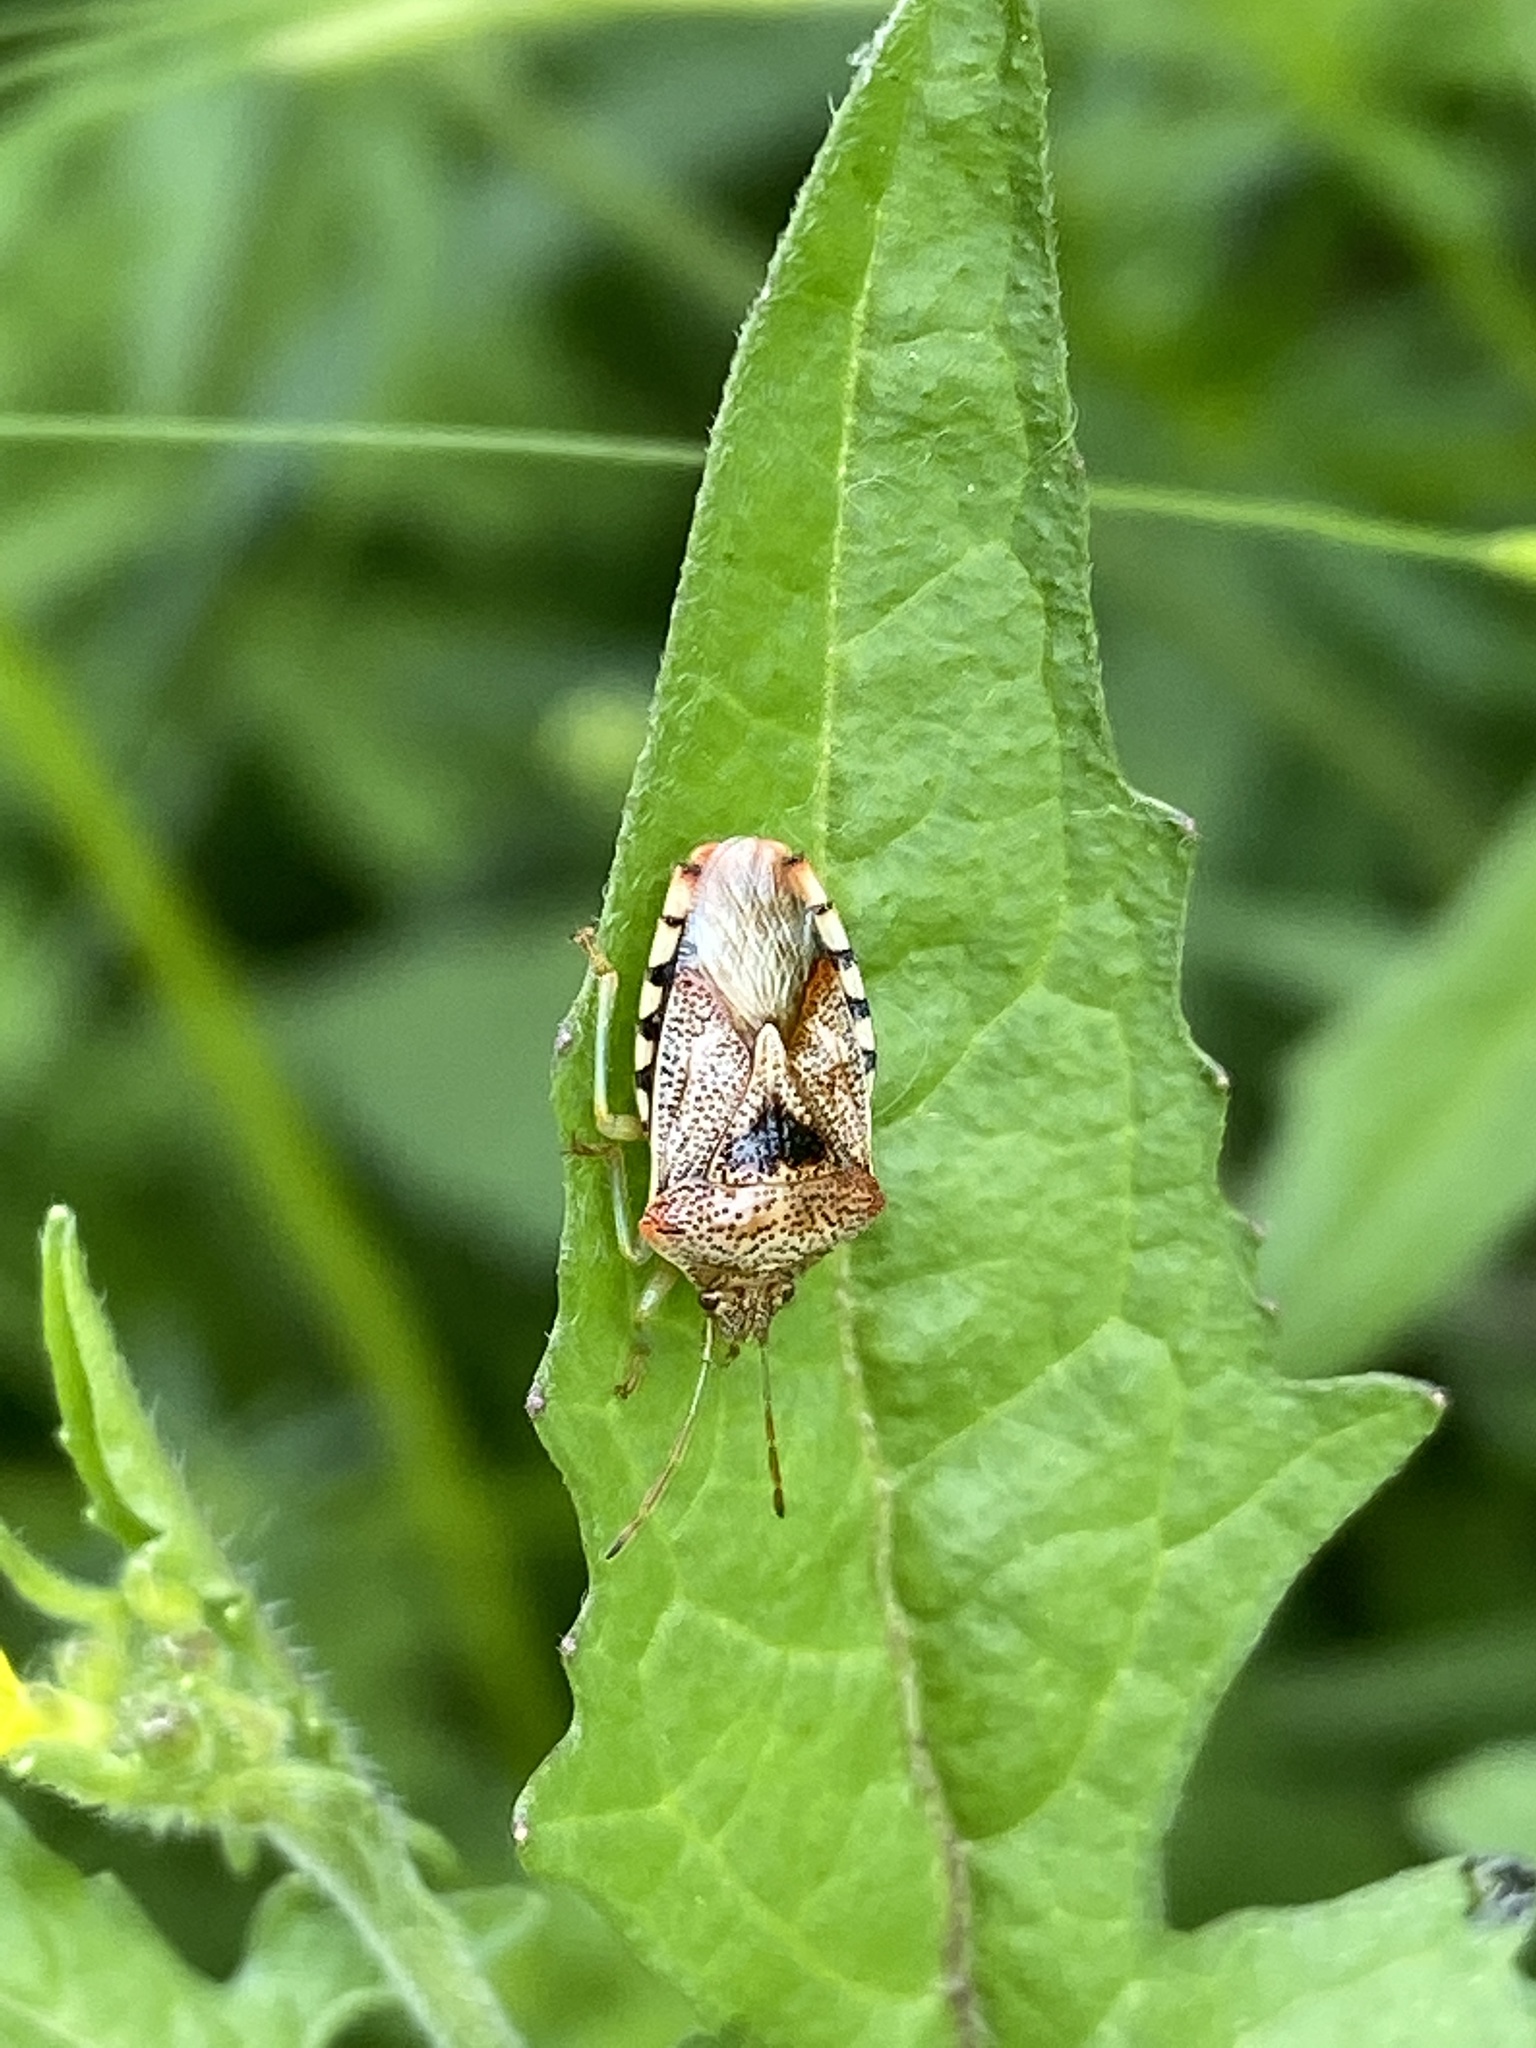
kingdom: Animalia
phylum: Arthropoda
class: Insecta
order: Hemiptera
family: Acanthosomatidae
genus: Elasmucha
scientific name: Elasmucha grisea
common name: Parent bug
